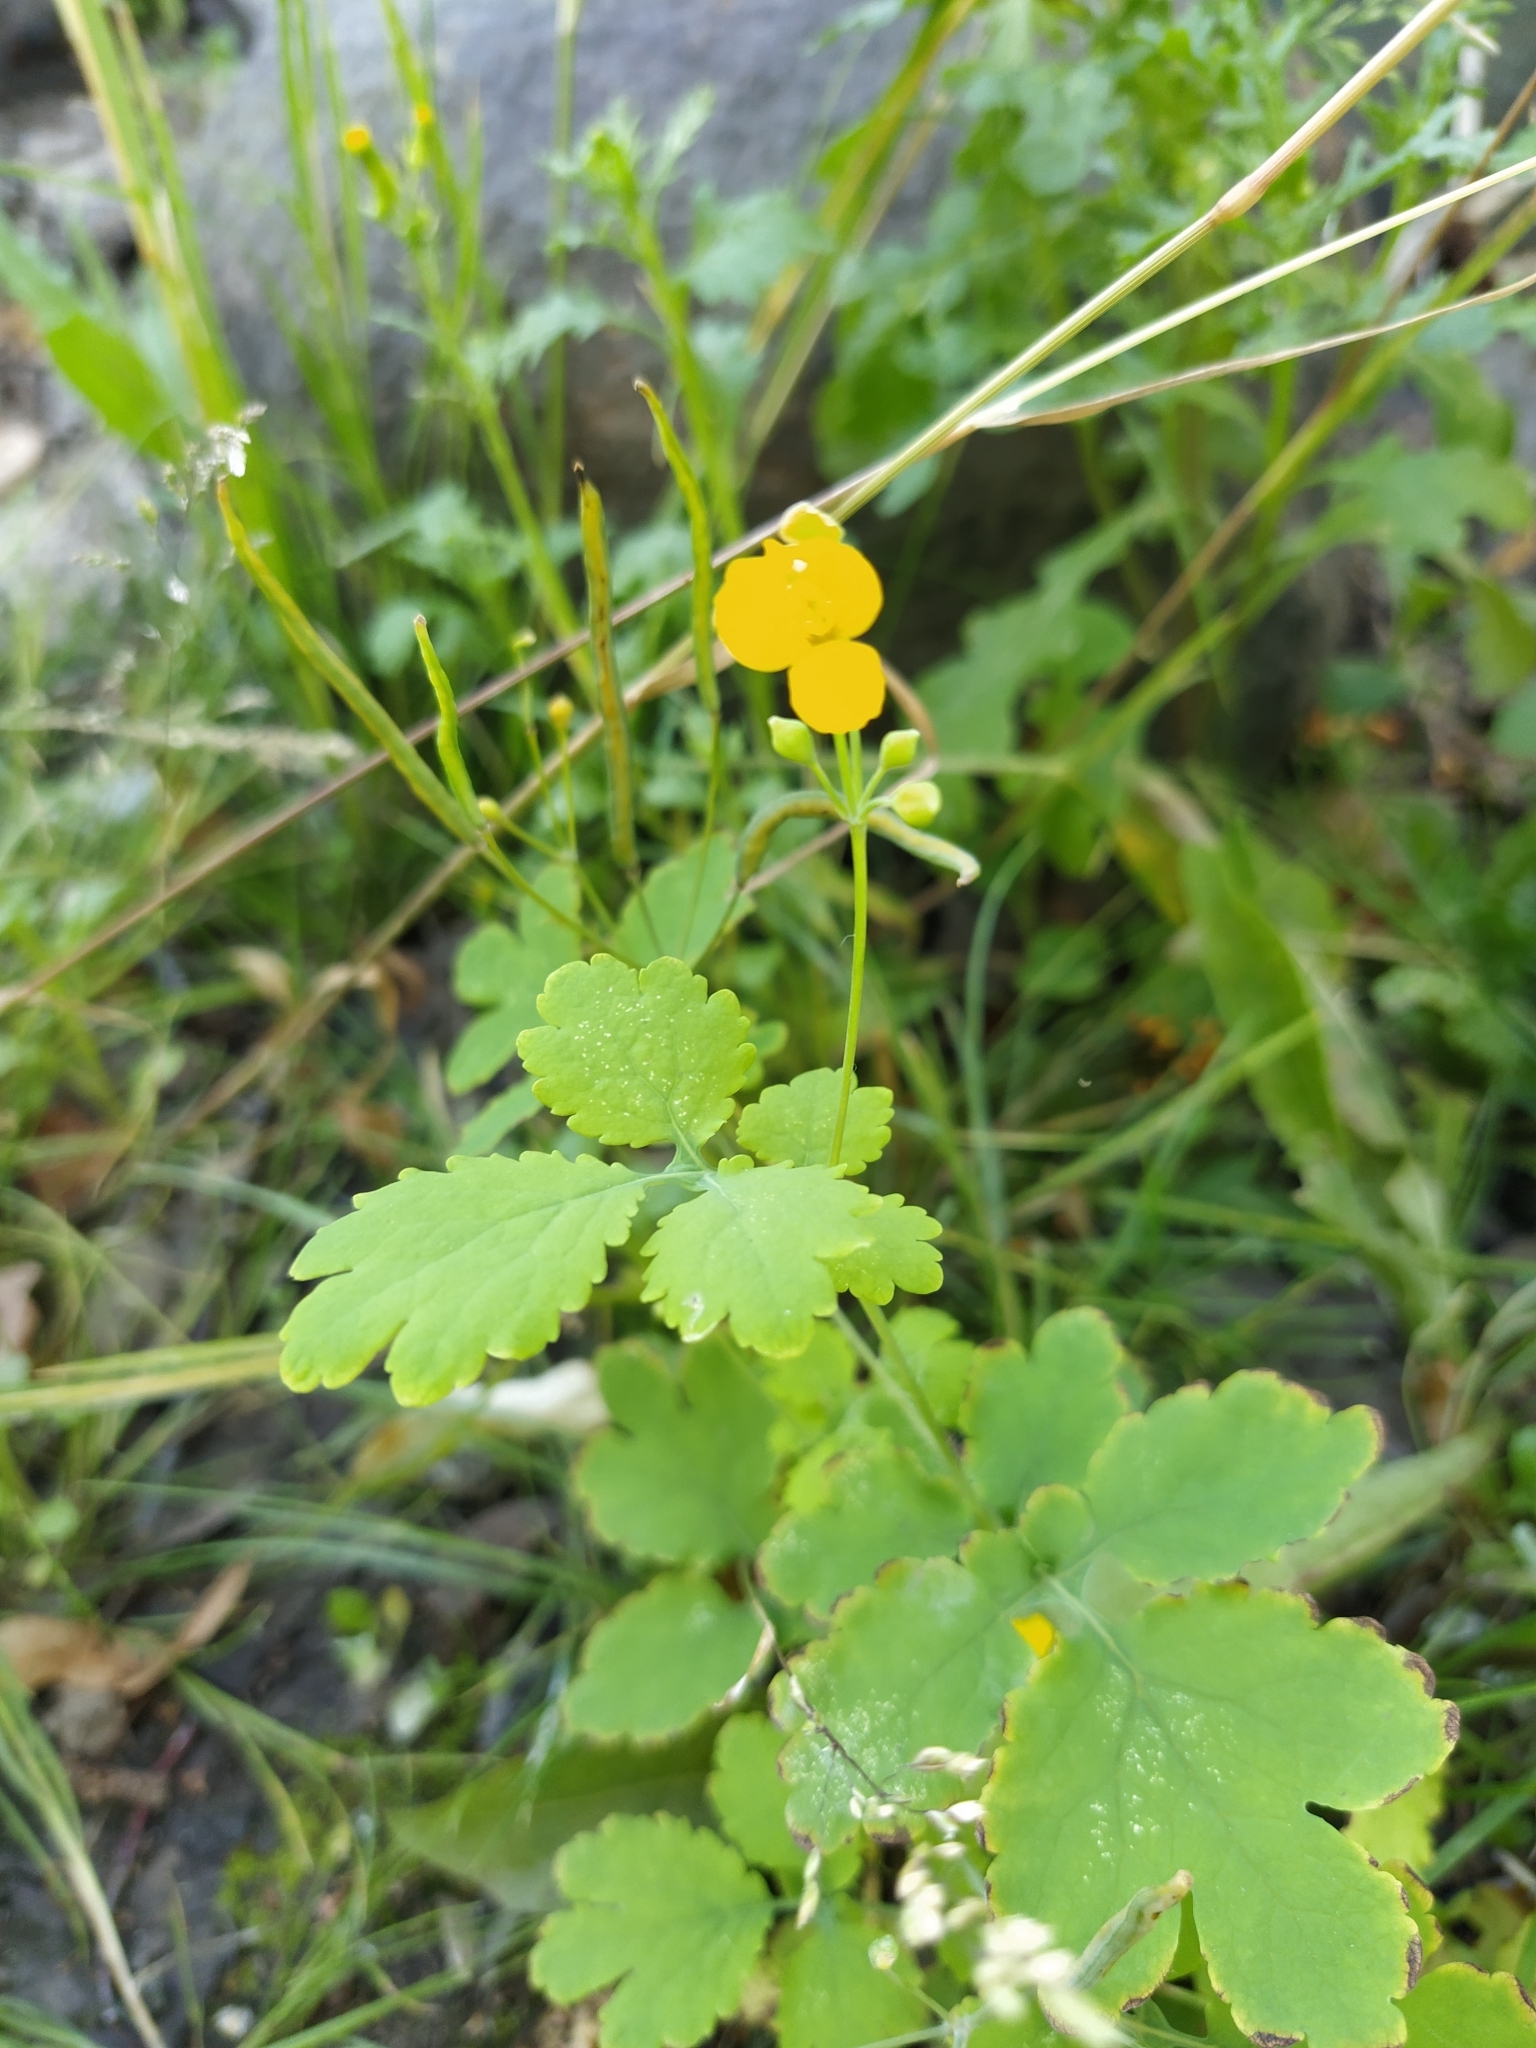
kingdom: Plantae
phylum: Tracheophyta
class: Magnoliopsida
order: Ranunculales
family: Papaveraceae
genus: Chelidonium
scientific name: Chelidonium majus
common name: Greater celandine
